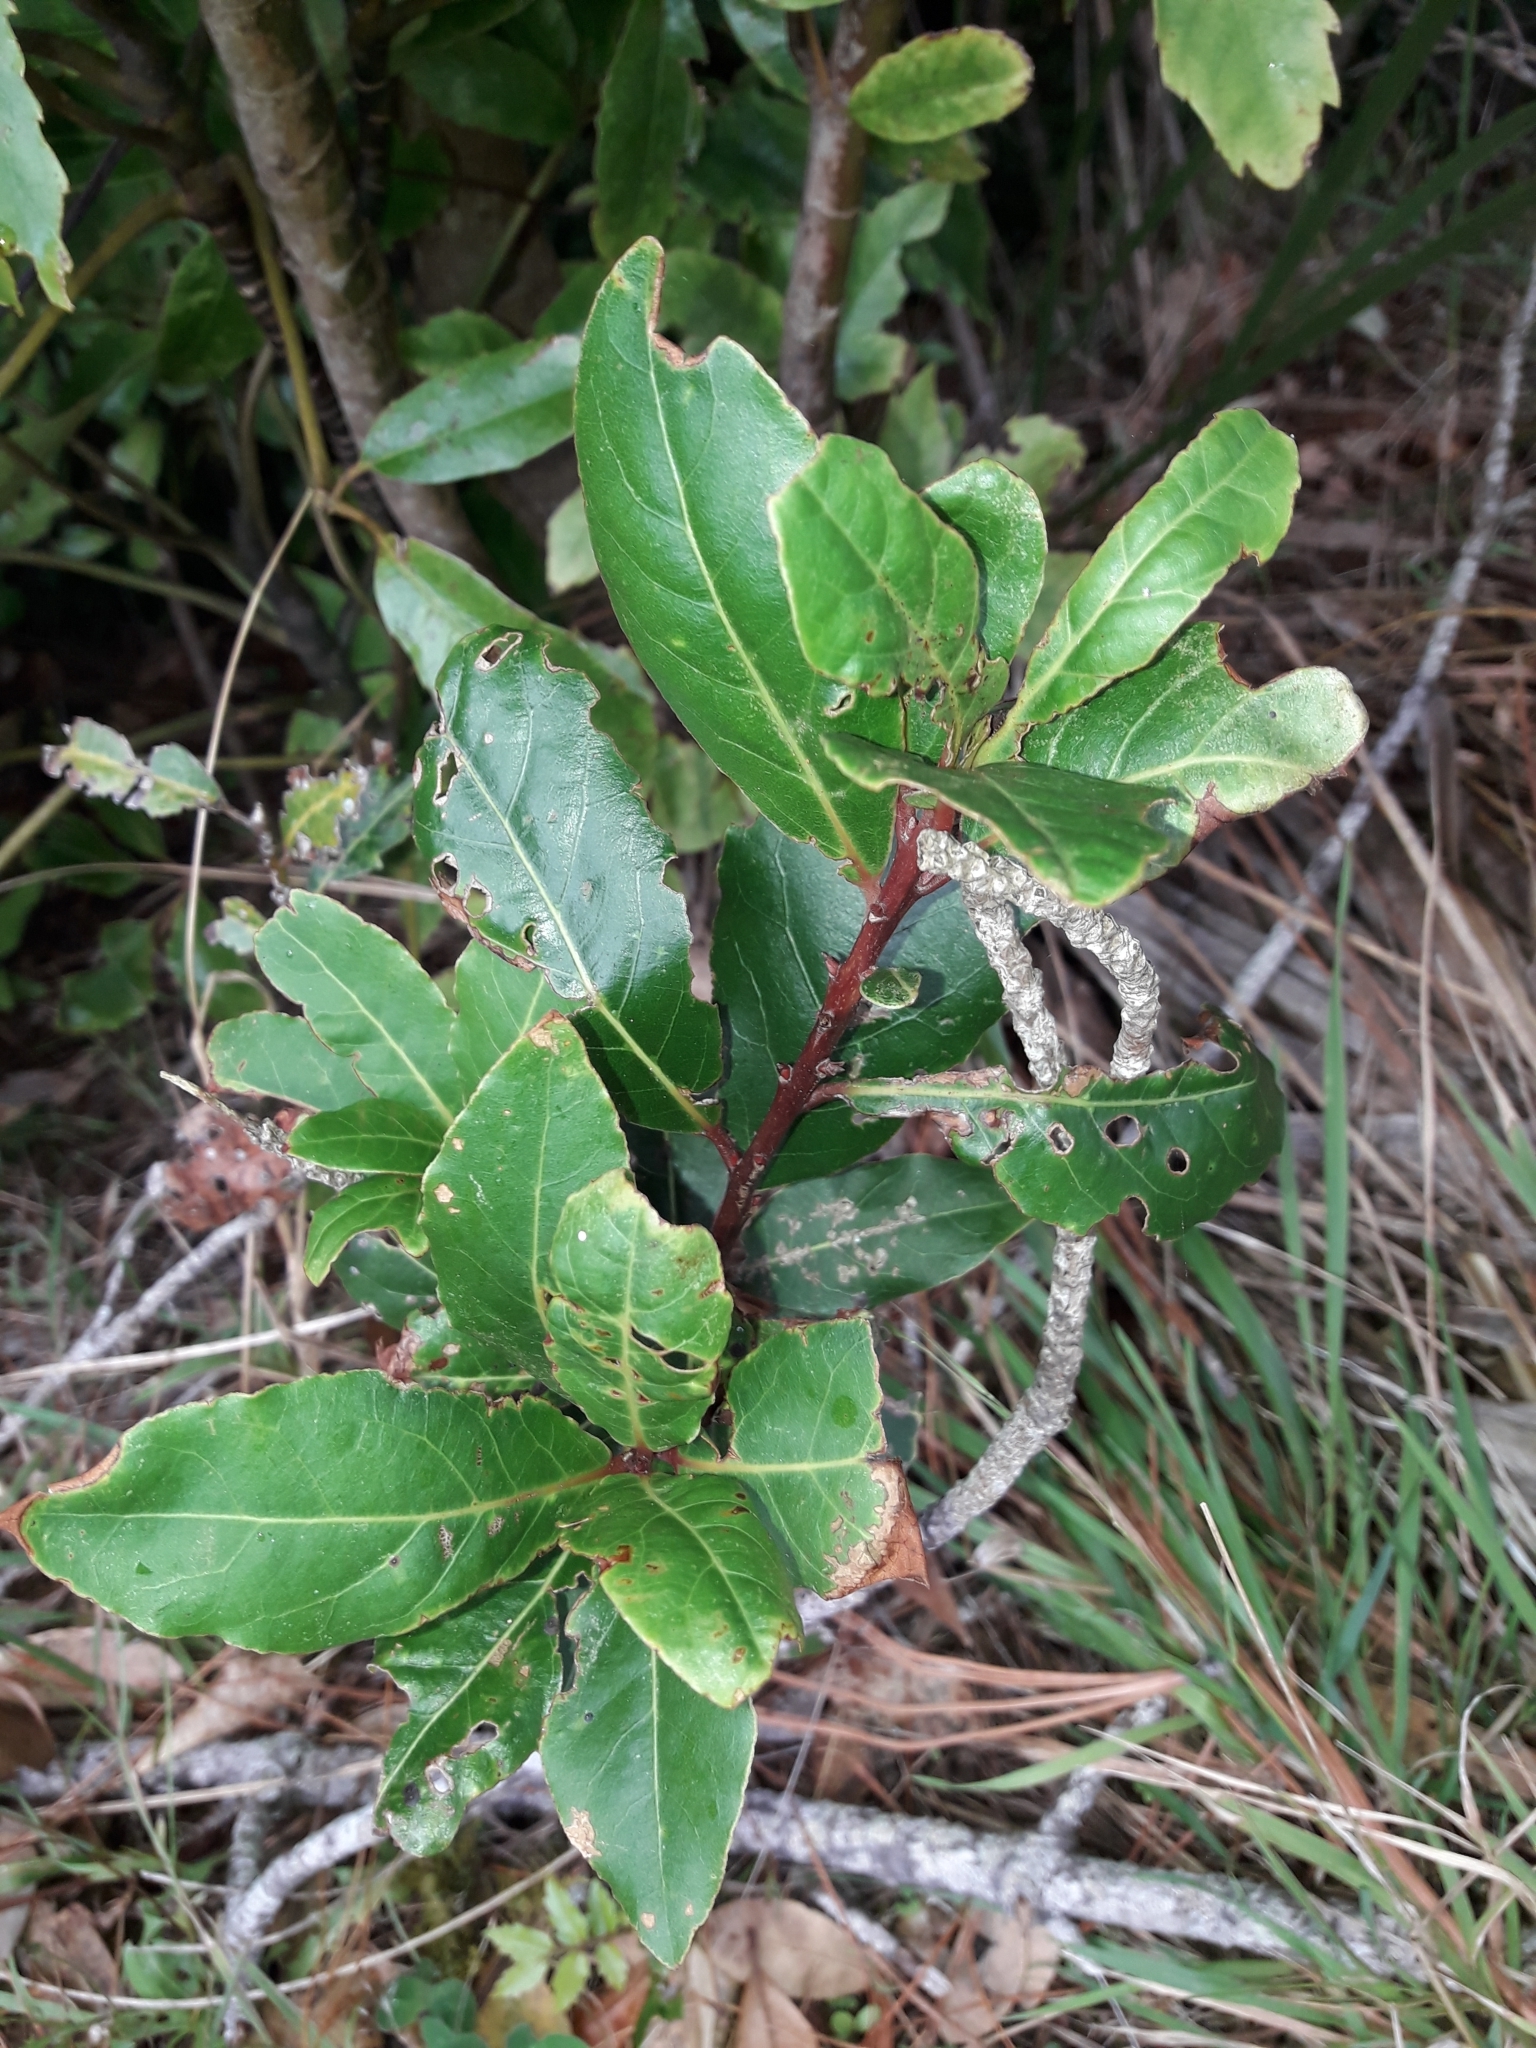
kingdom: Plantae
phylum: Tracheophyta
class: Magnoliopsida
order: Laurales
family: Lauraceae
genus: Laurus
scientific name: Laurus nobilis
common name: Bay
